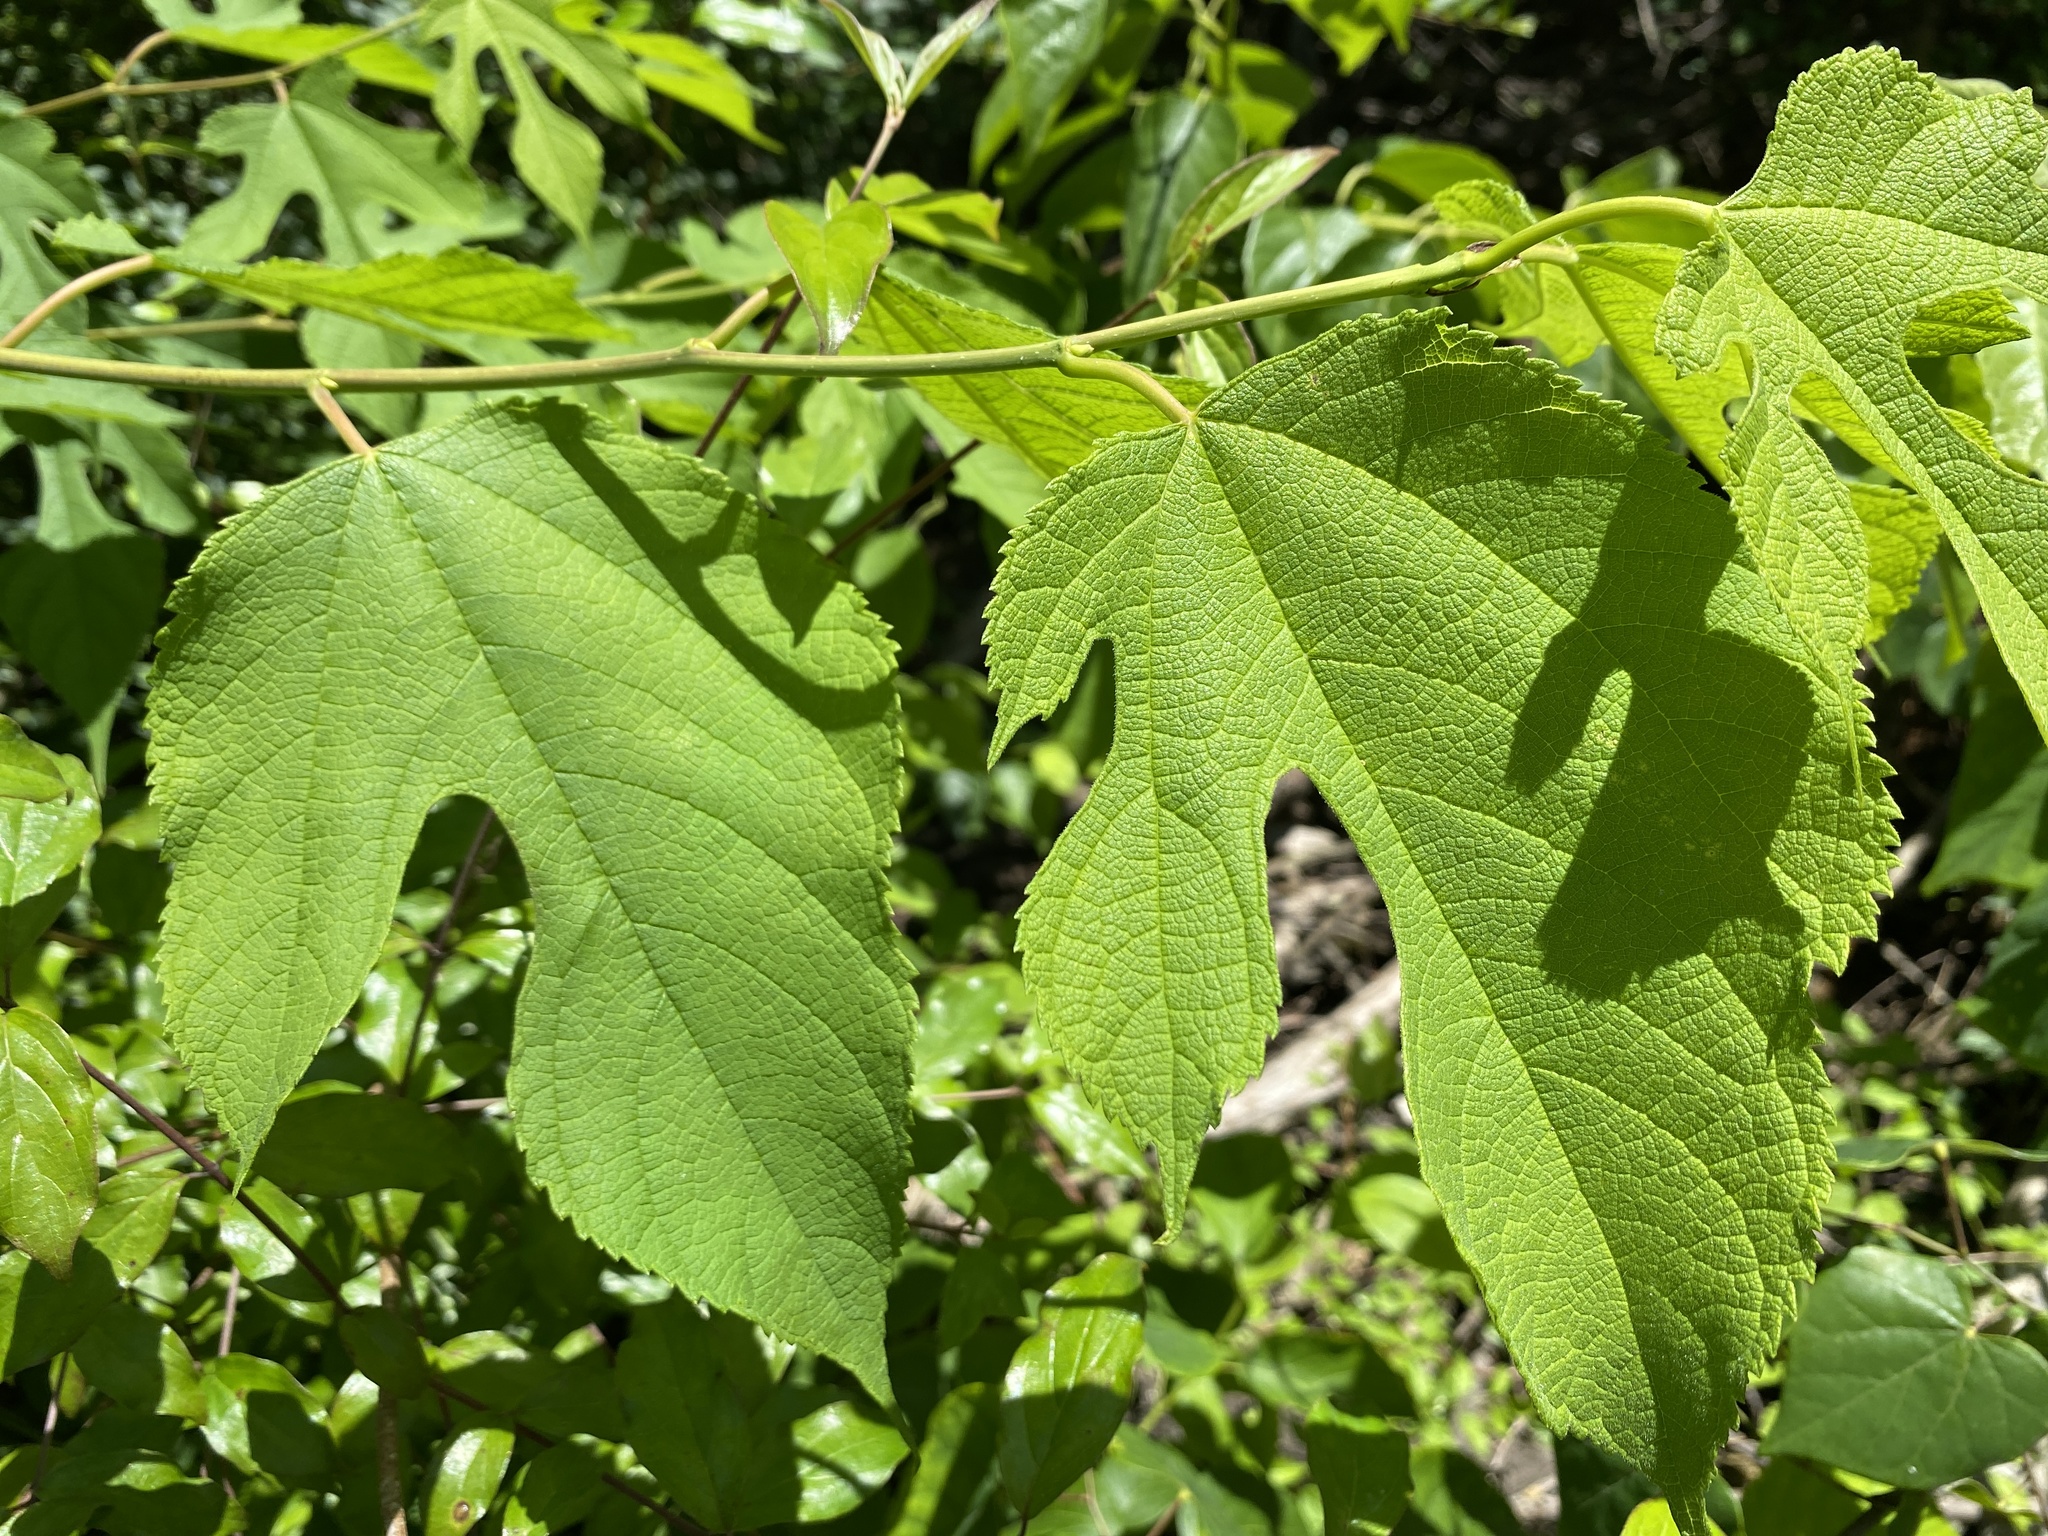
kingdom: Plantae
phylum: Tracheophyta
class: Magnoliopsida
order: Rosales
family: Moraceae
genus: Morus
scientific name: Morus rubra
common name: Red mulberry
